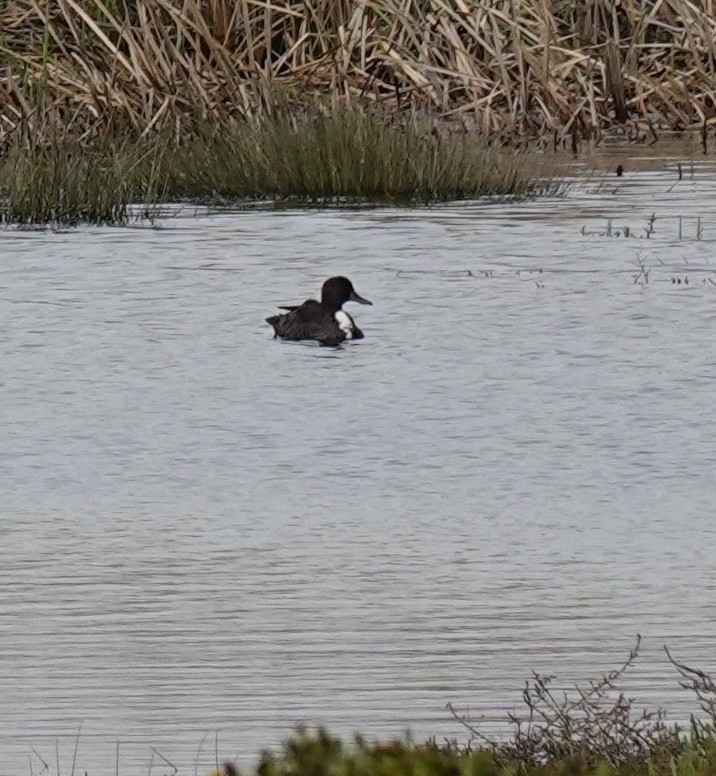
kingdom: Animalia
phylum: Chordata
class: Aves
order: Anseriformes
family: Anatidae
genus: Anas
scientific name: Anas platyrhynchos
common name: Mallard
